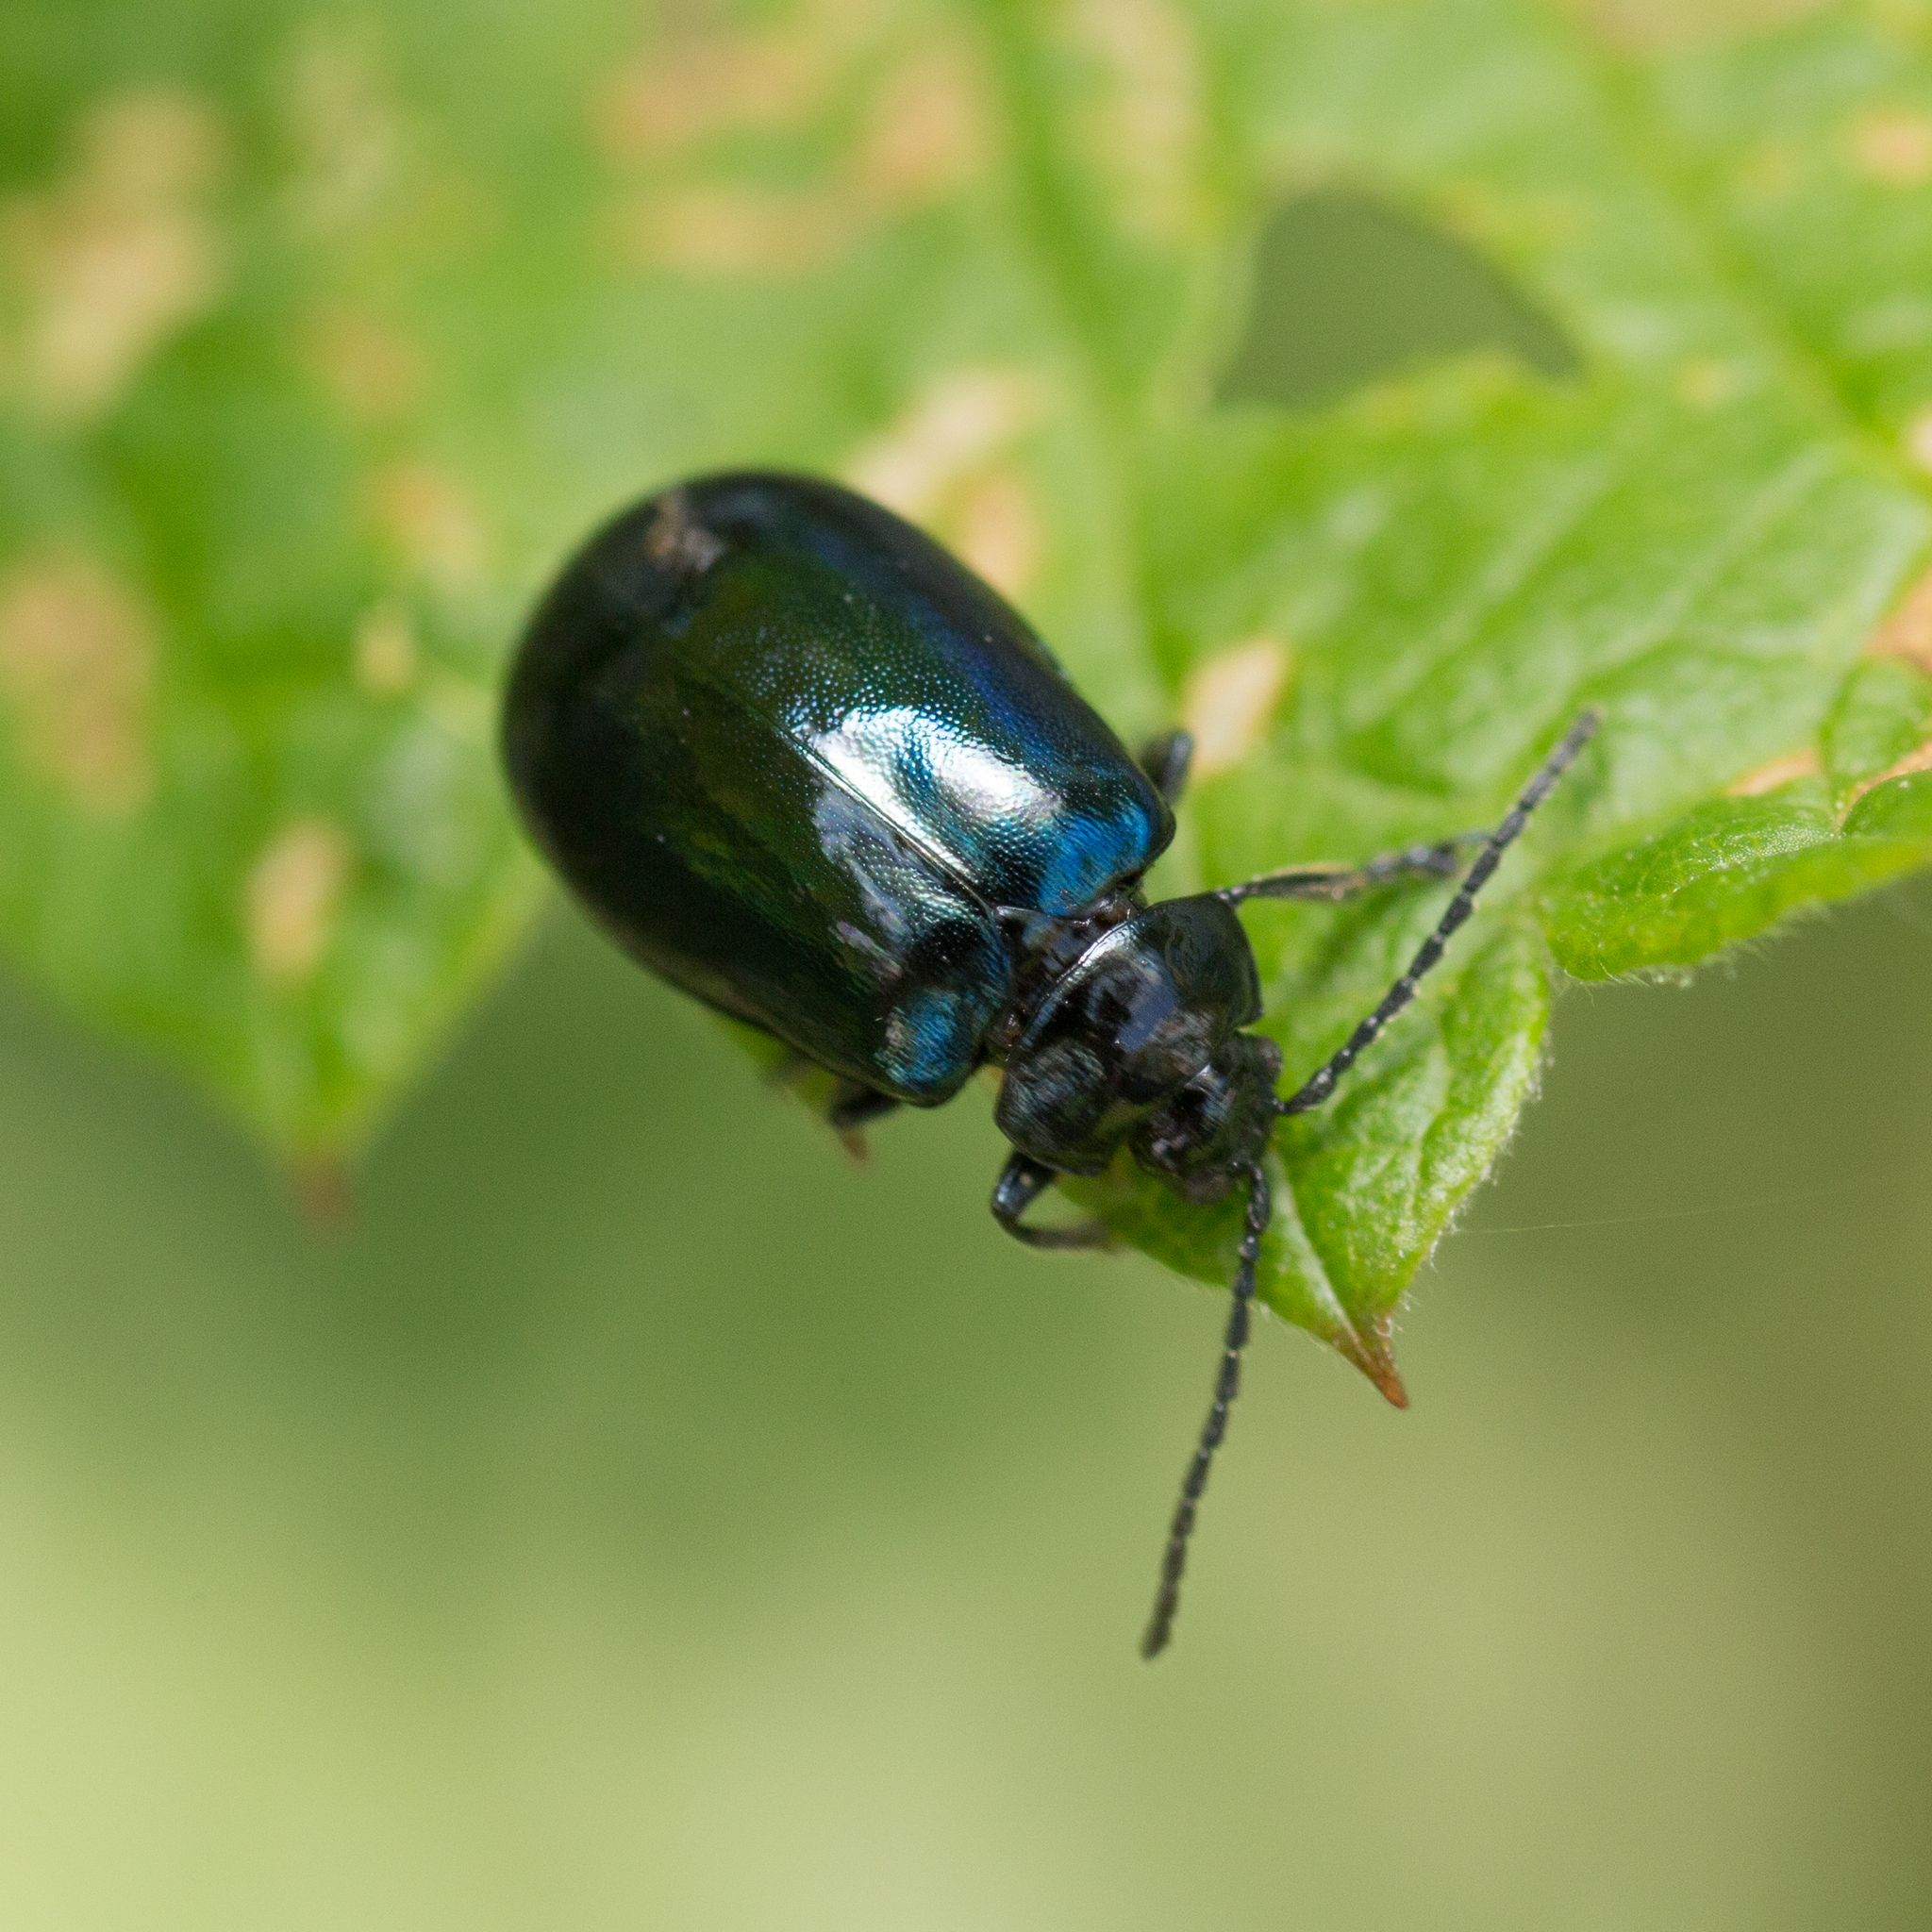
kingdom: Animalia
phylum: Arthropoda
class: Insecta
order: Coleoptera
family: Chrysomelidae
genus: Agelastica
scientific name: Agelastica alni
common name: Alder leaf beetle
